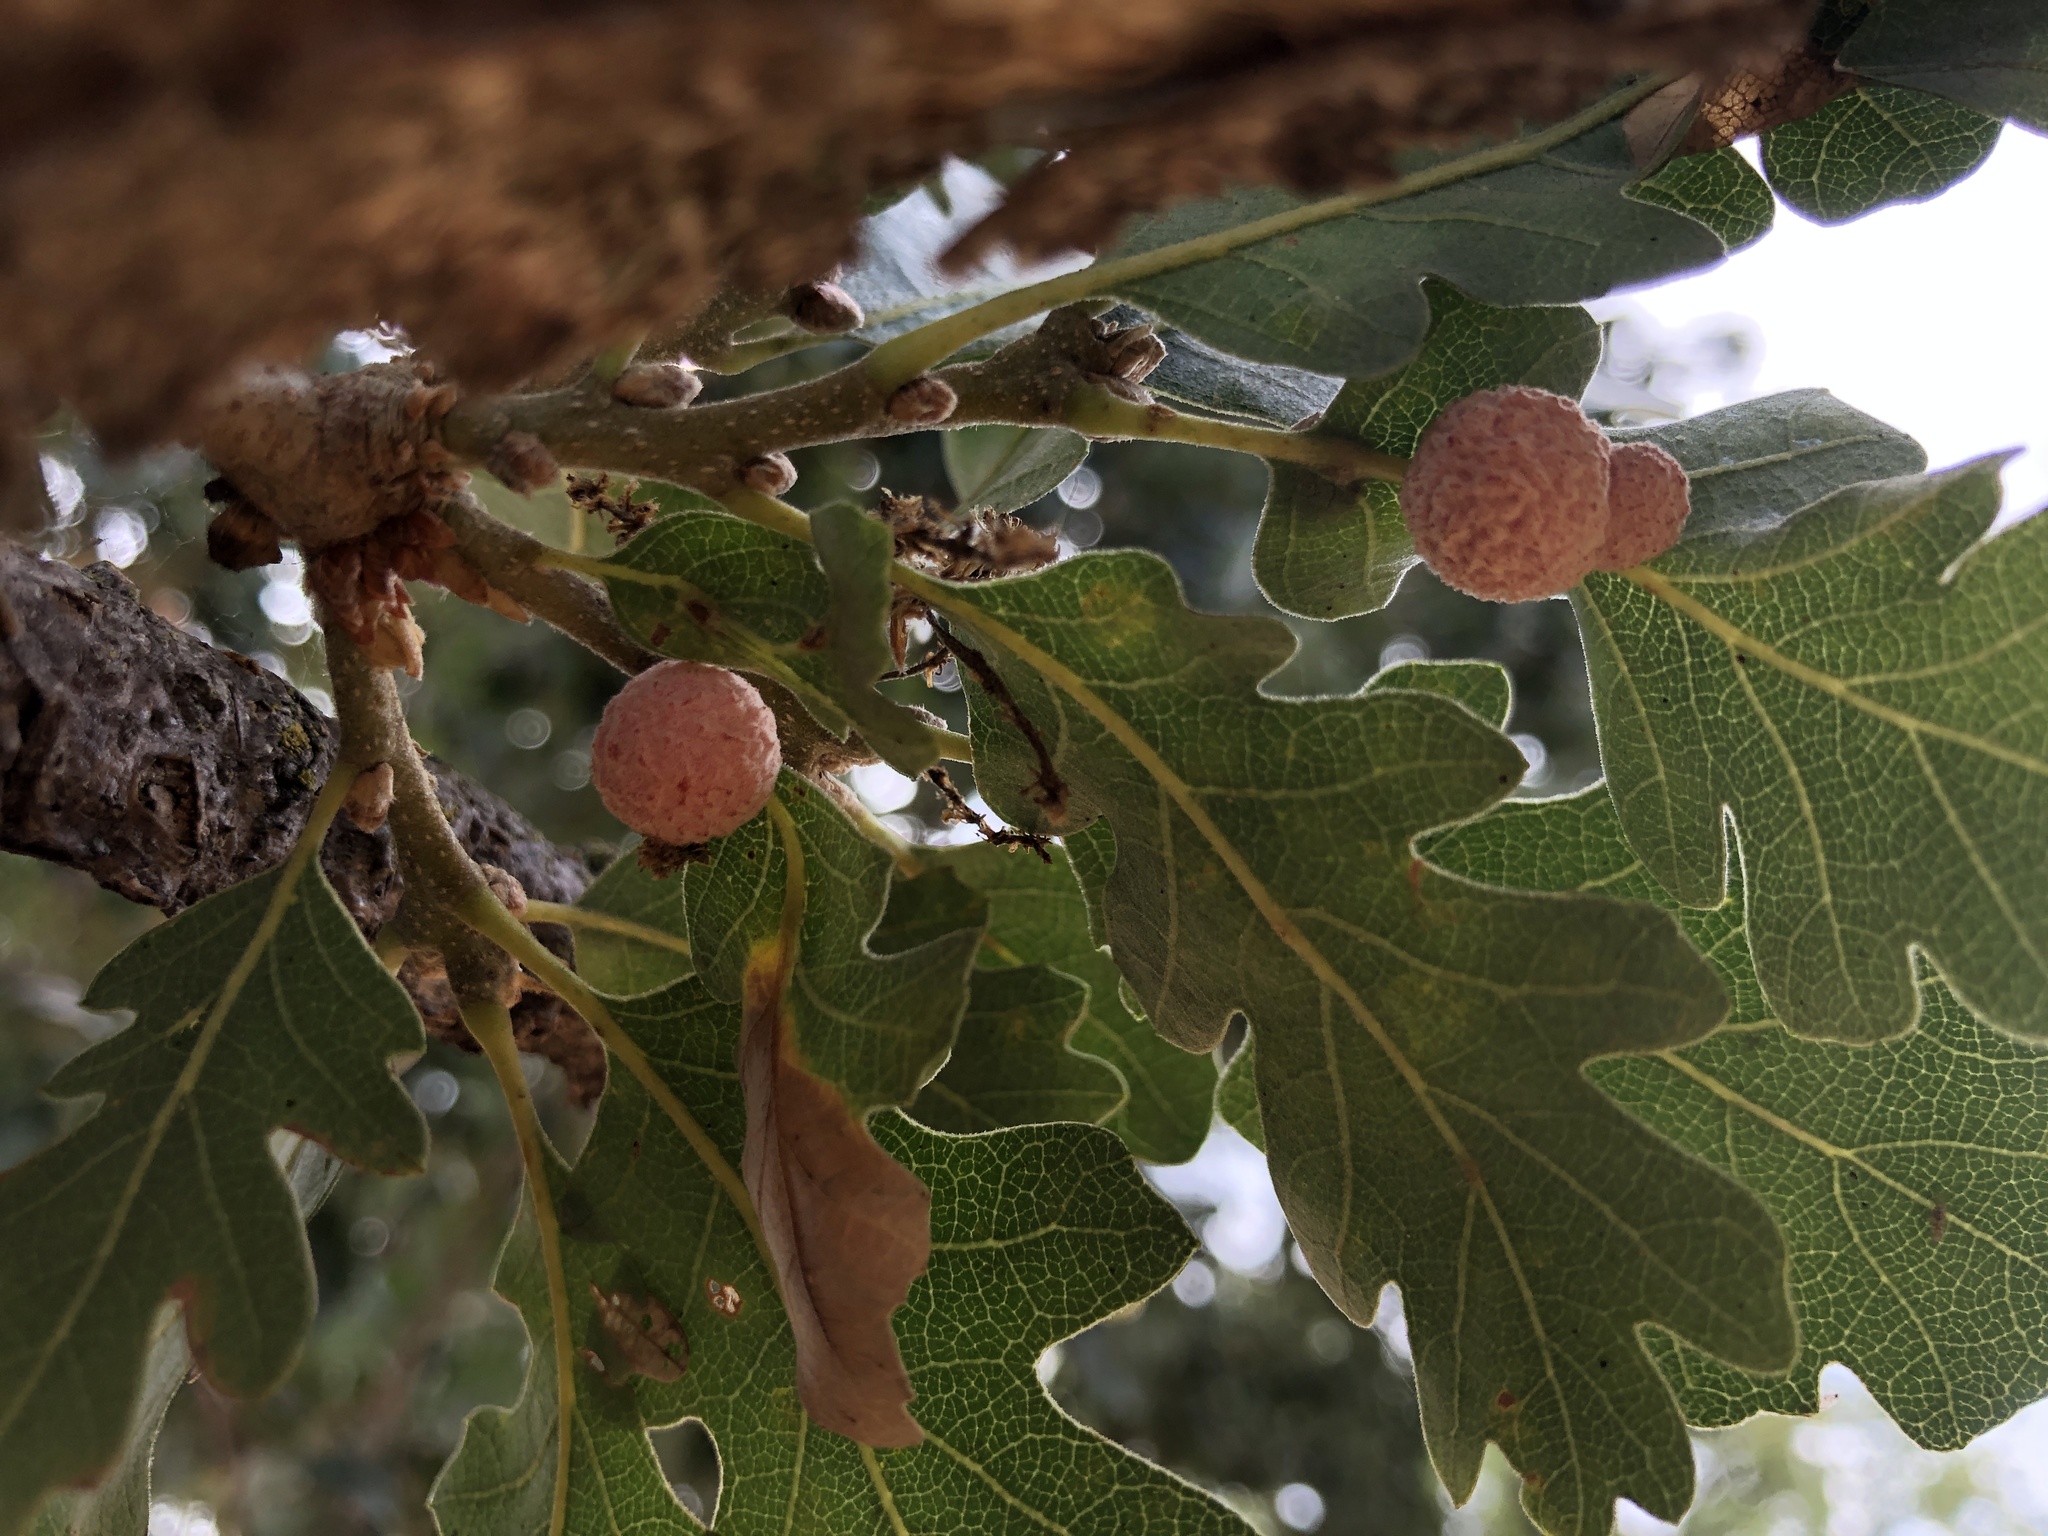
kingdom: Animalia
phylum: Arthropoda
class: Insecta
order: Hymenoptera
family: Cynipidae
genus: Cynips
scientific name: Cynips conspicua
